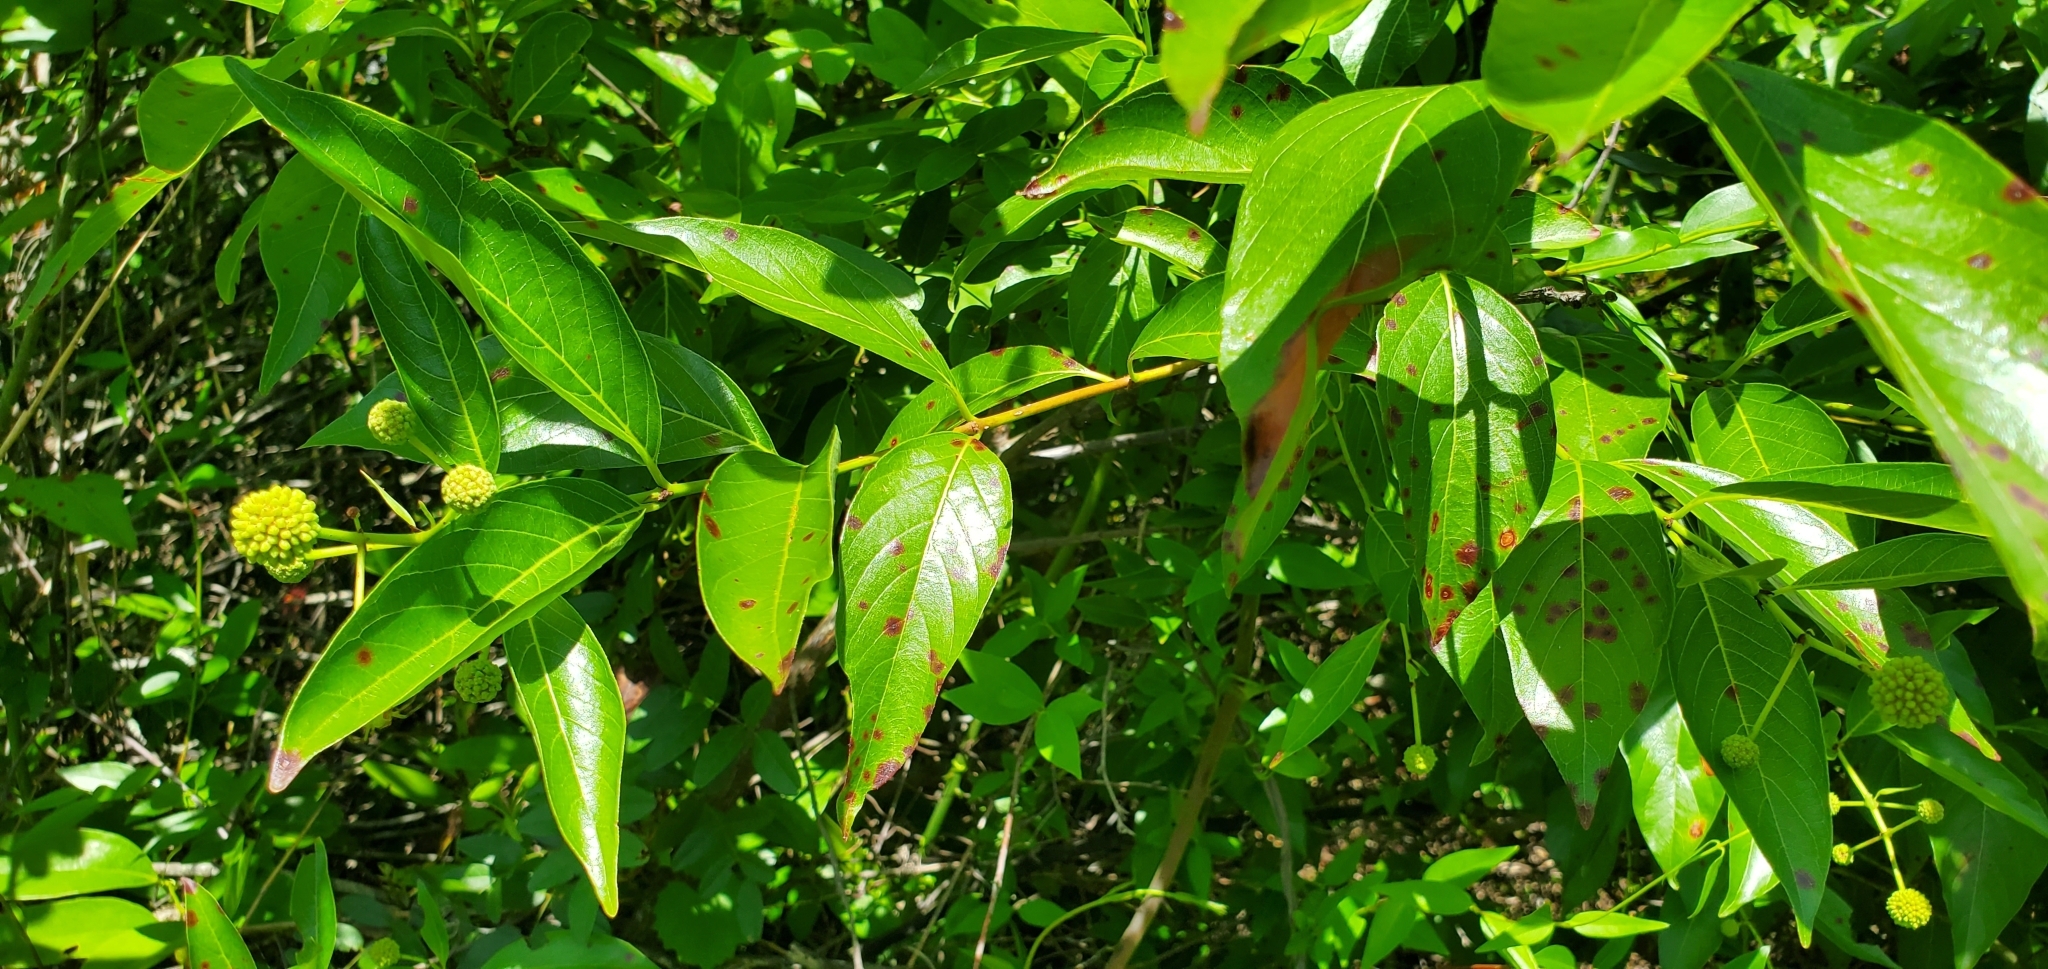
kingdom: Plantae
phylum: Tracheophyta
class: Magnoliopsida
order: Gentianales
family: Rubiaceae
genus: Cephalanthus
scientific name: Cephalanthus occidentalis
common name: Button-willow
